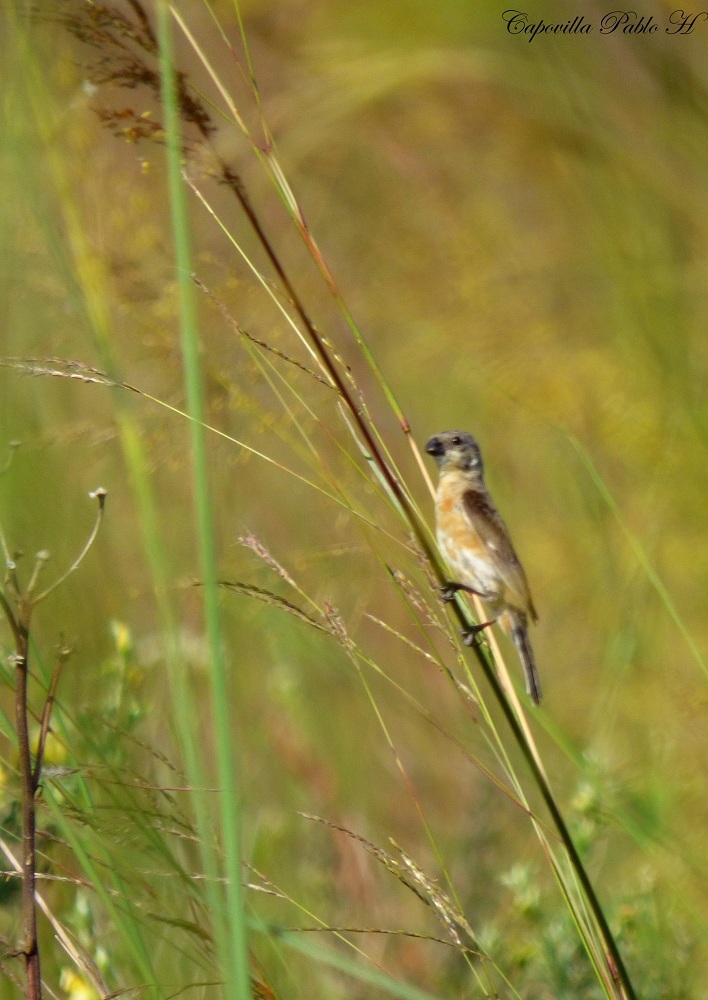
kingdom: Animalia
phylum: Chordata
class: Aves
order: Passeriformes
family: Thraupidae
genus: Sporophila
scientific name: Sporophila palustris
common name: Marsh seedeater
